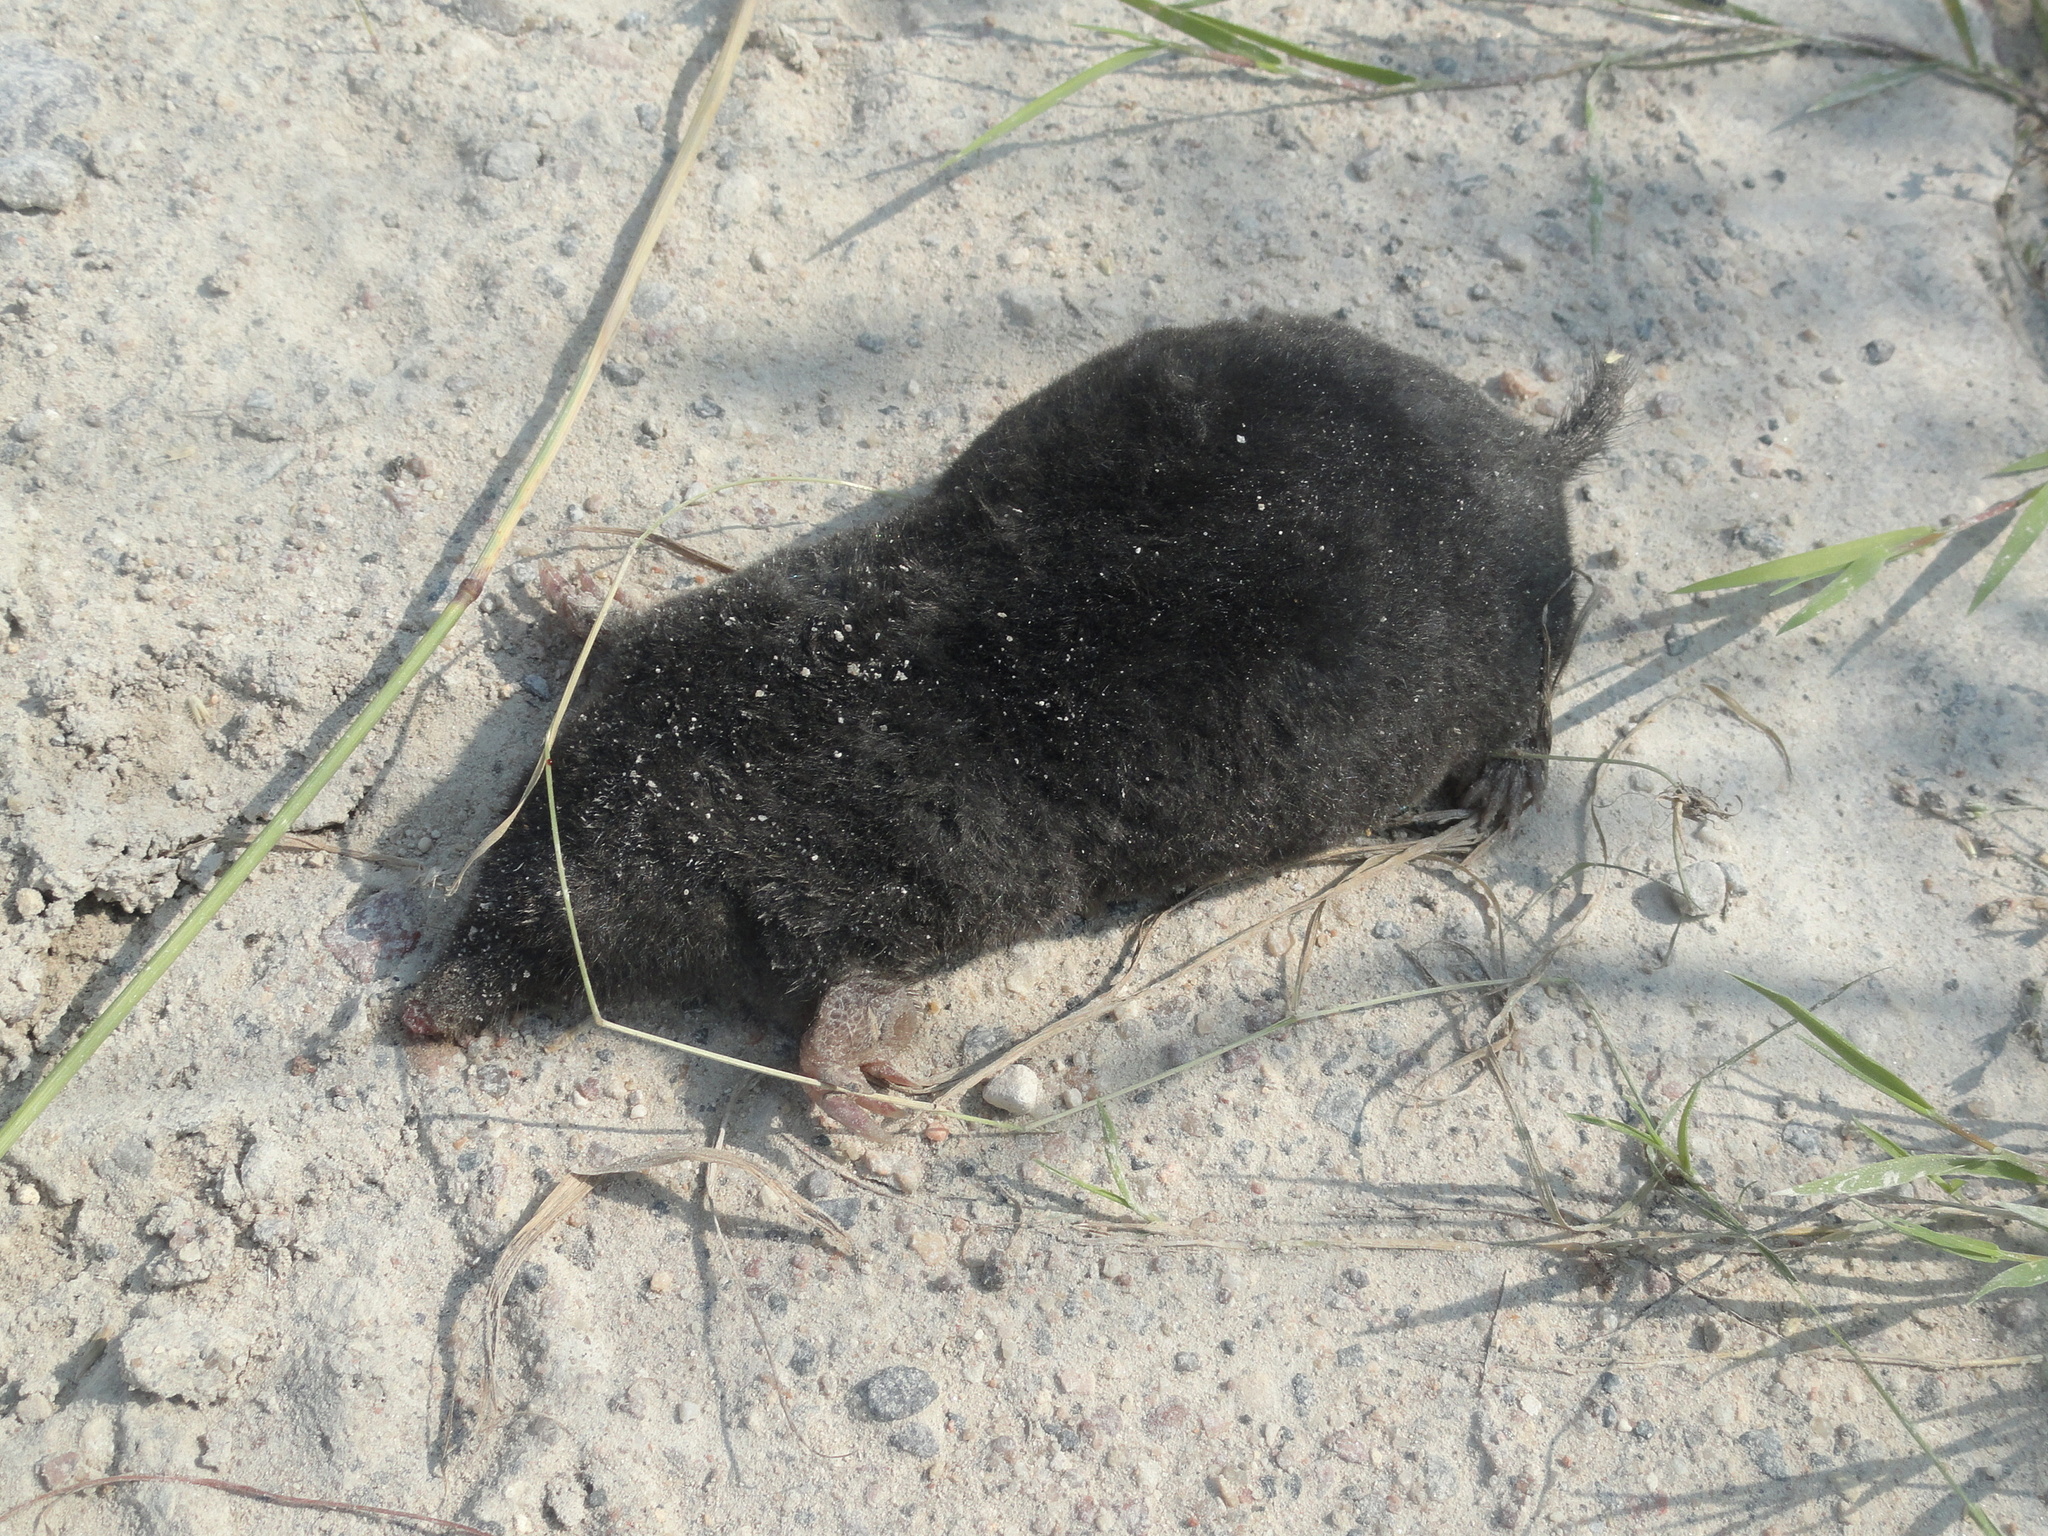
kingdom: Animalia
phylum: Chordata
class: Mammalia
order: Soricomorpha
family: Talpidae
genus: Talpa
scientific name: Talpa europaea
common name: European mole
